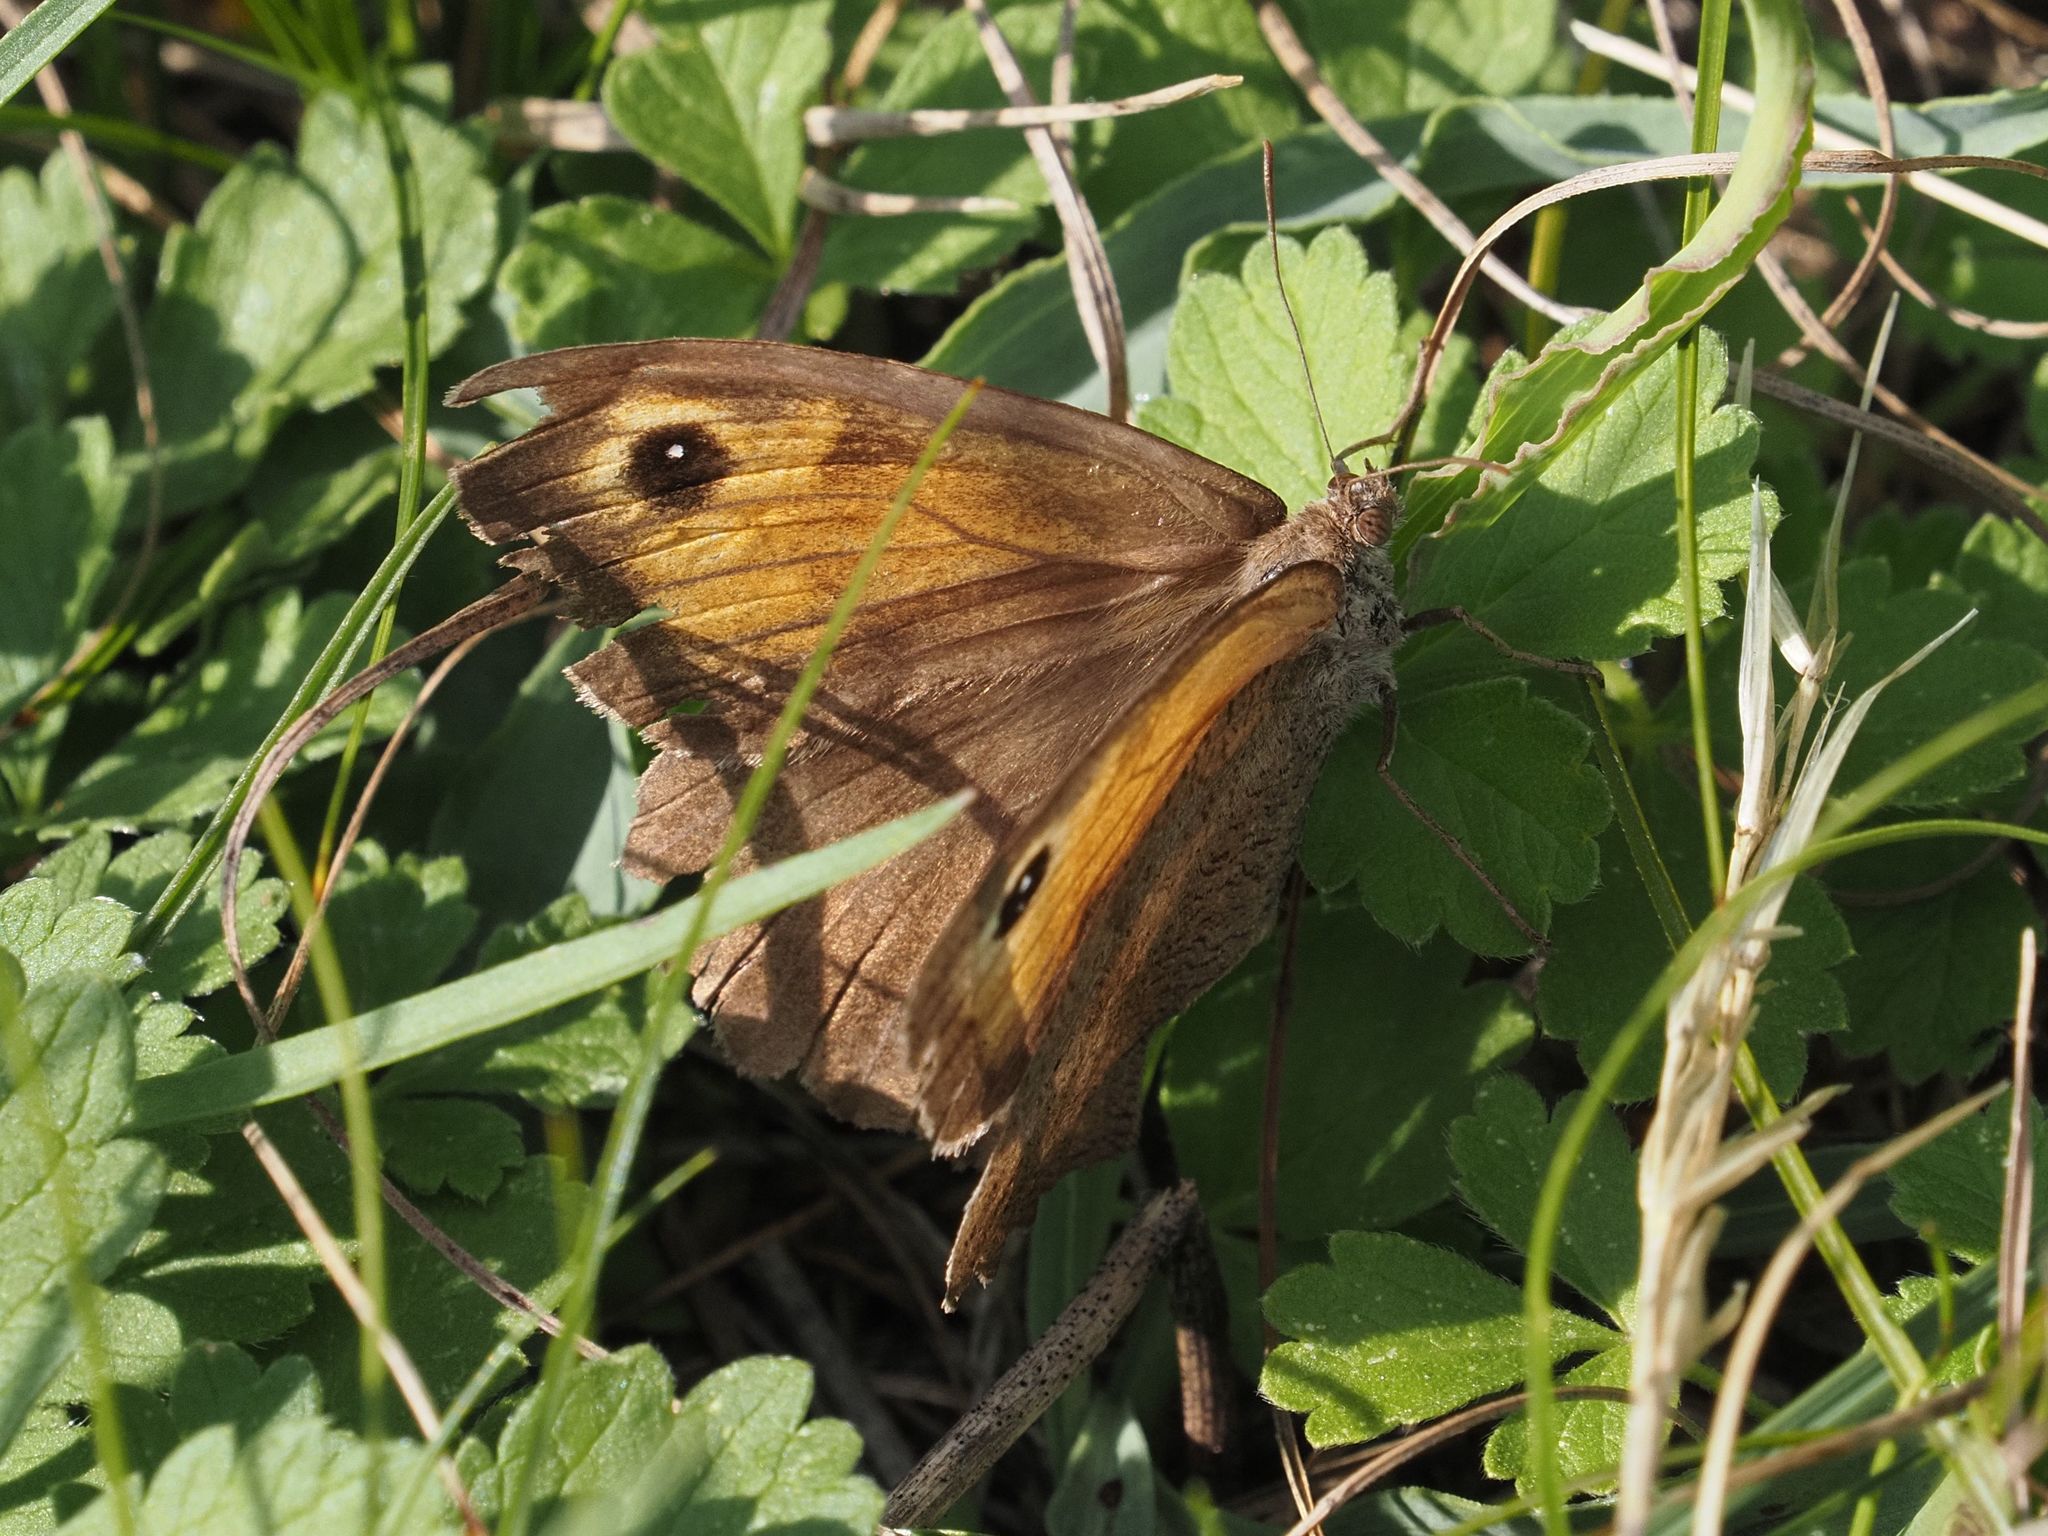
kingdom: Animalia
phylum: Arthropoda
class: Insecta
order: Lepidoptera
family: Nymphalidae
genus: Maniola
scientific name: Maniola jurtina
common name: Meadow brown
